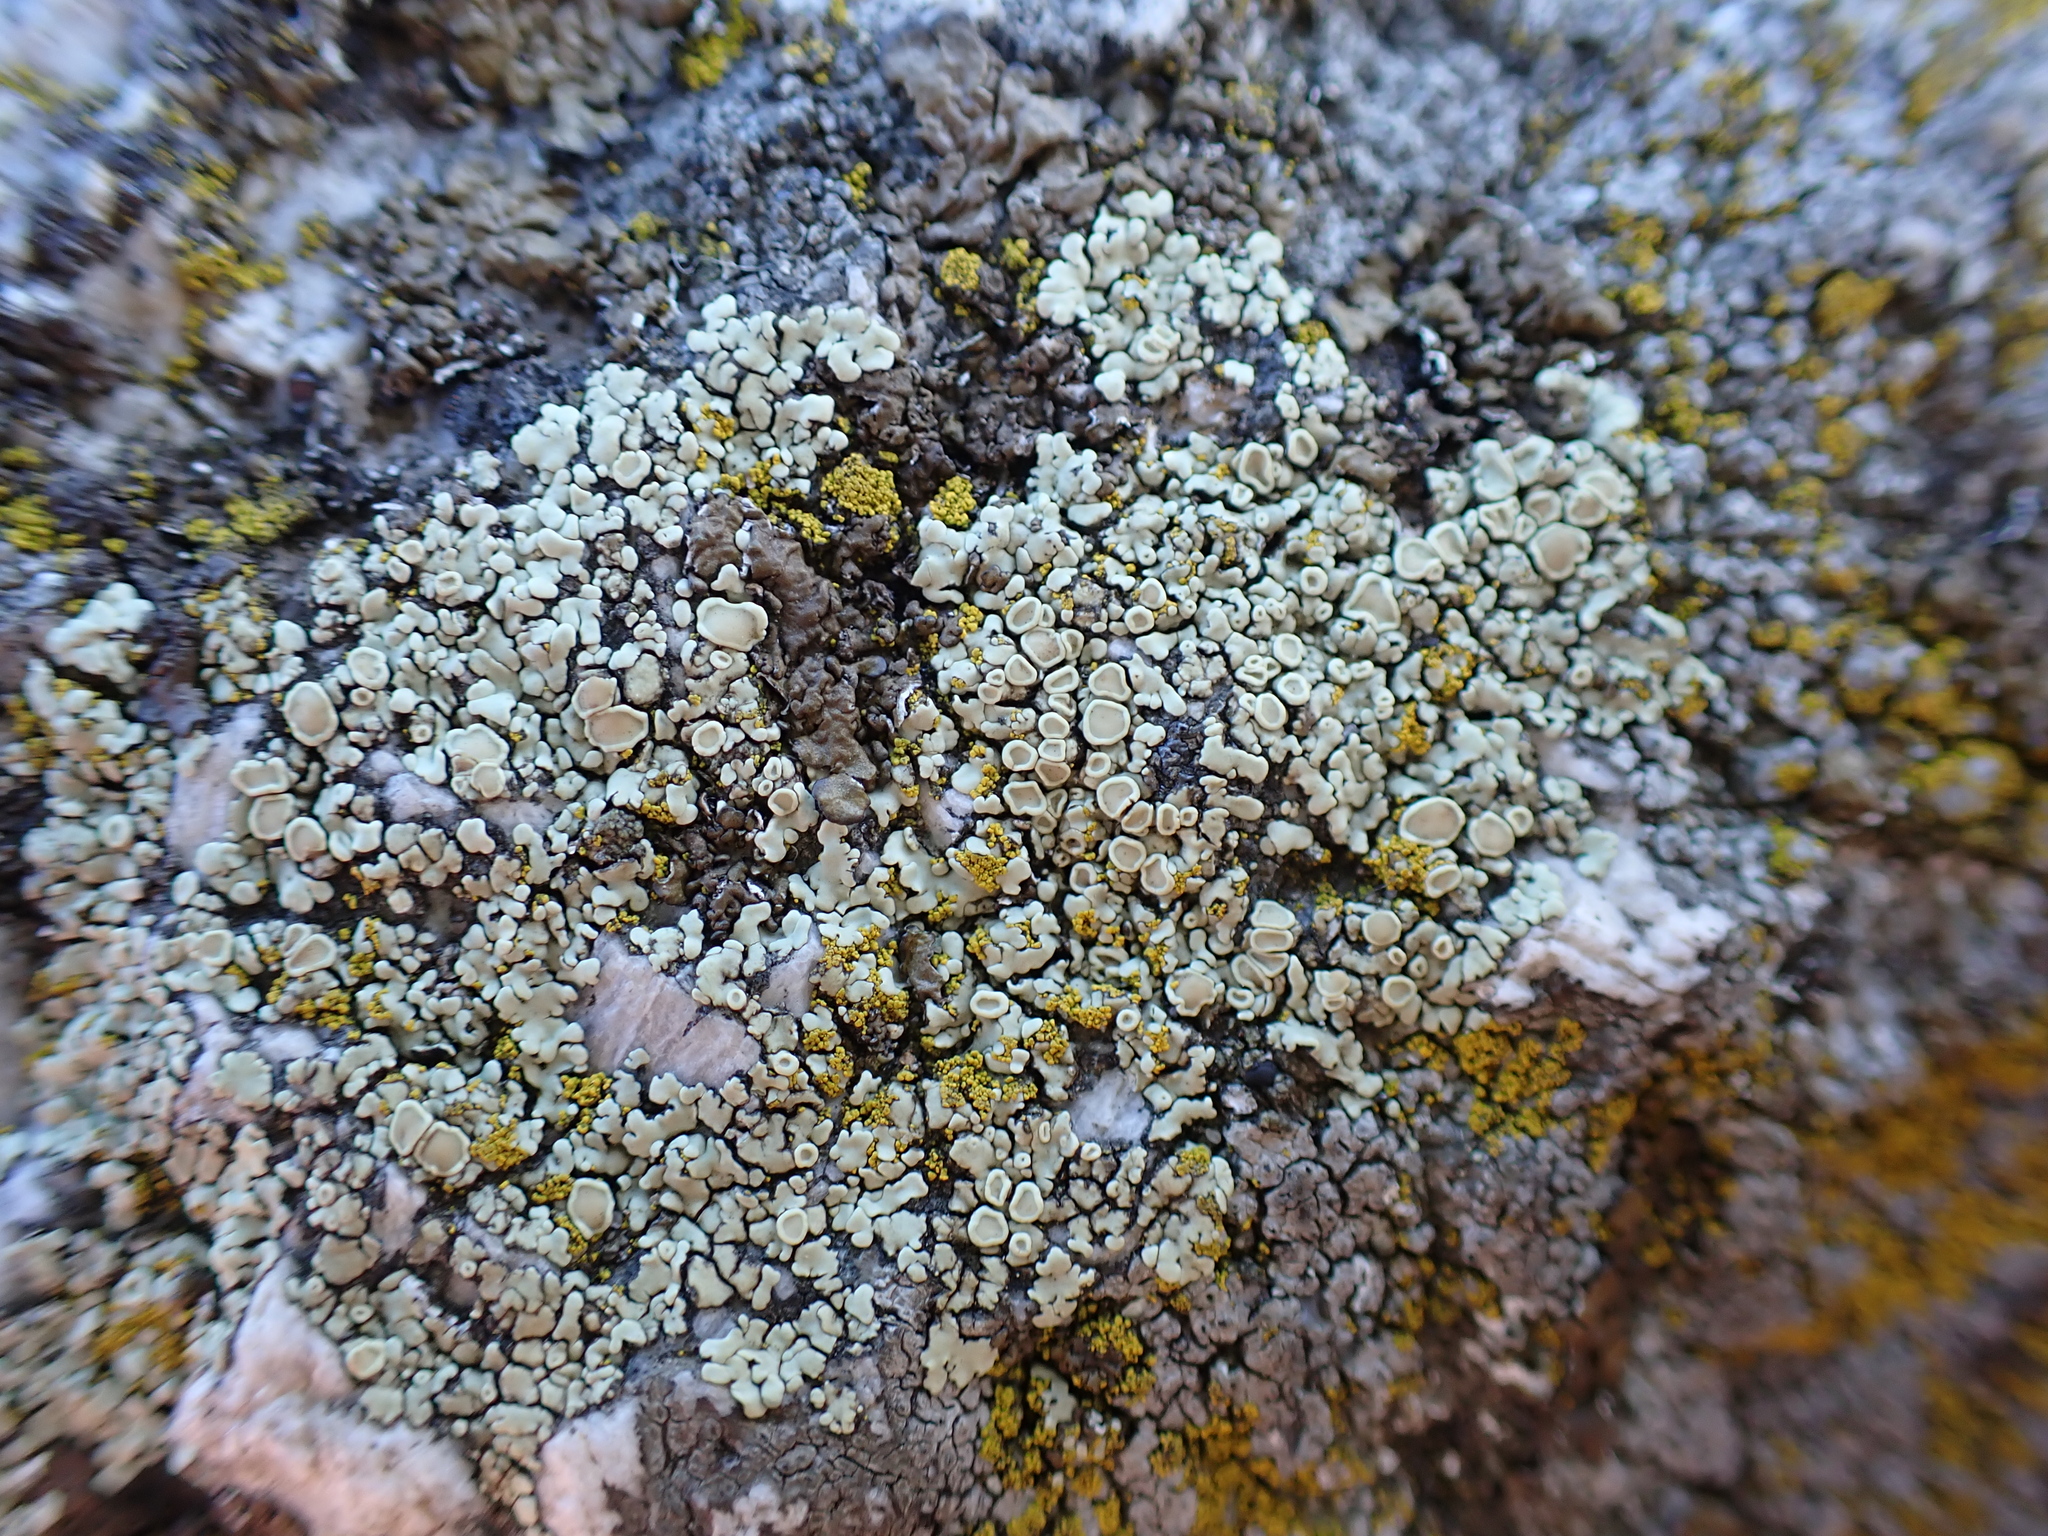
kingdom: Fungi
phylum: Ascomycota
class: Lecanoromycetes
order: Lecanorales
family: Lecanoraceae
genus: Protoparmeliopsis
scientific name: Protoparmeliopsis muralis
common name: Stonewall rim lichen
